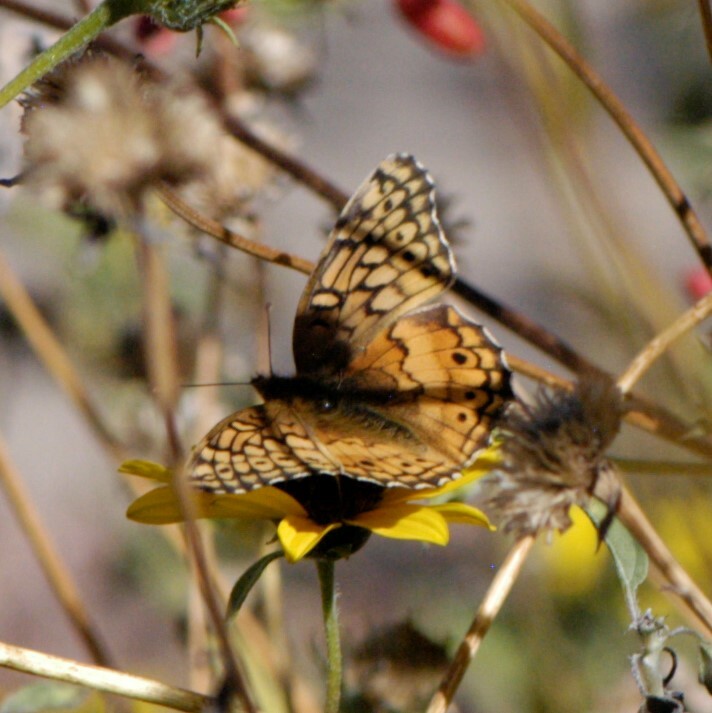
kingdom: Animalia
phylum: Arthropoda
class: Insecta
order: Lepidoptera
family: Nymphalidae
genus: Euptoieta
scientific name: Euptoieta claudia
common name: Variegated fritillary
